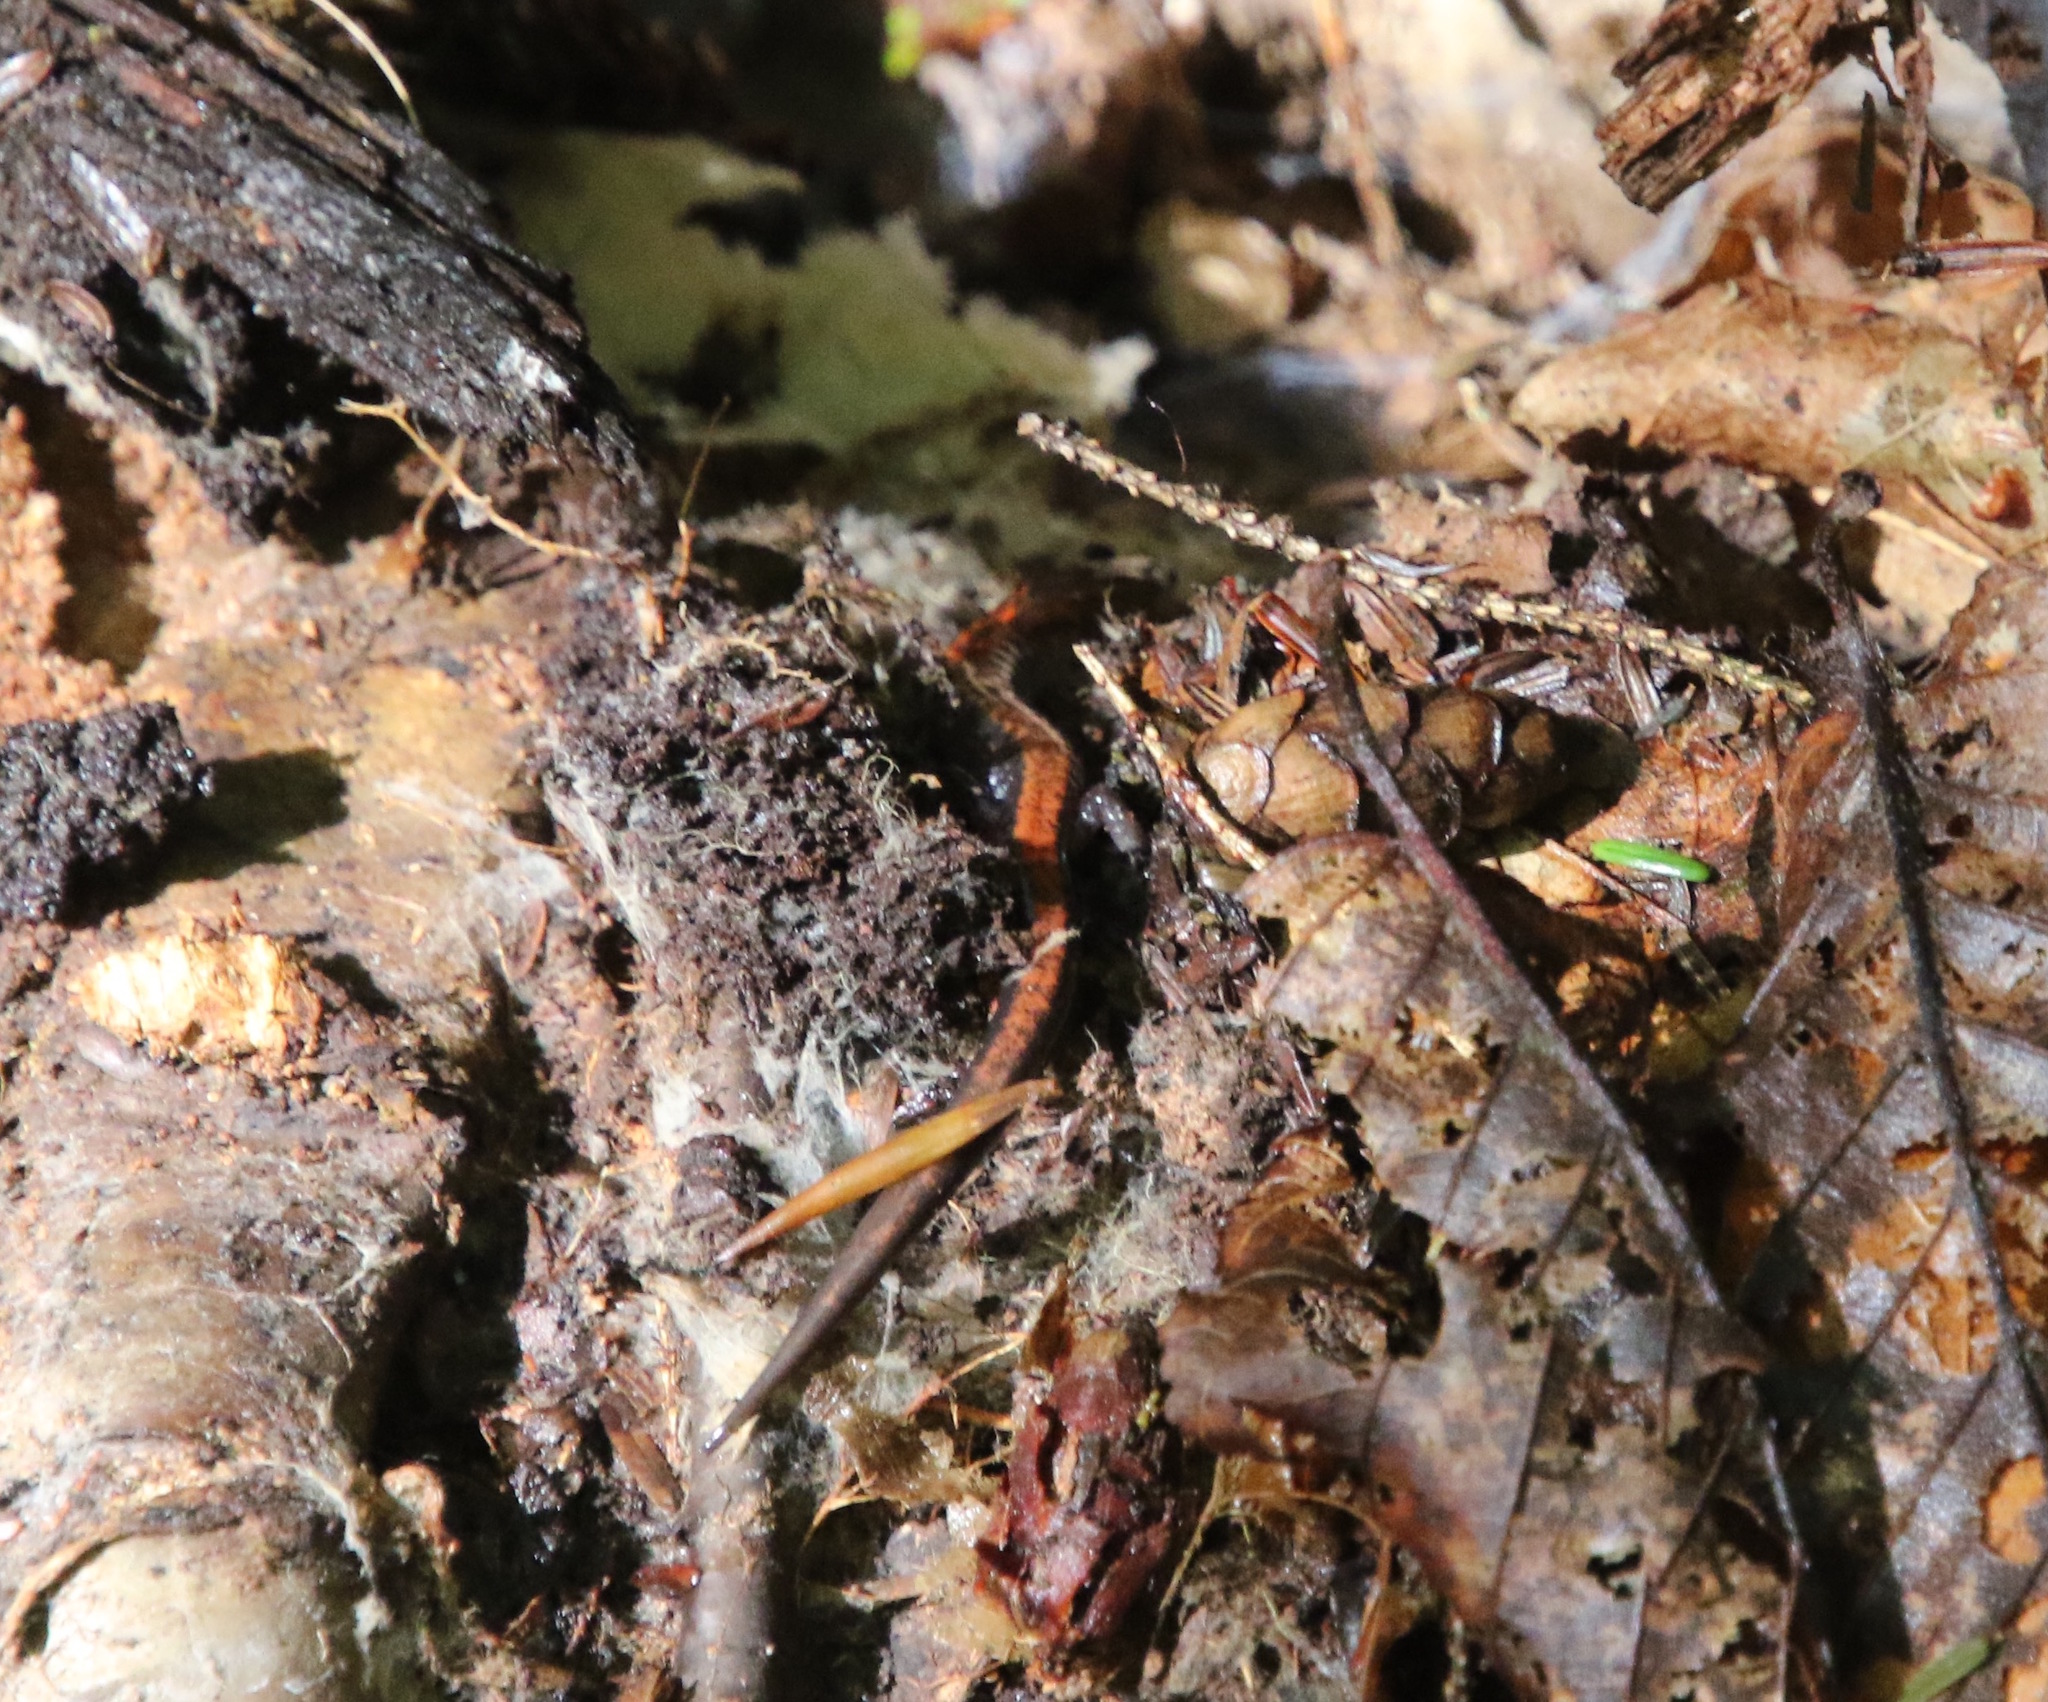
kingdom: Animalia
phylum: Chordata
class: Amphibia
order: Caudata
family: Plethodontidae
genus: Plethodon
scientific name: Plethodon cinereus
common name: Redback salamander
